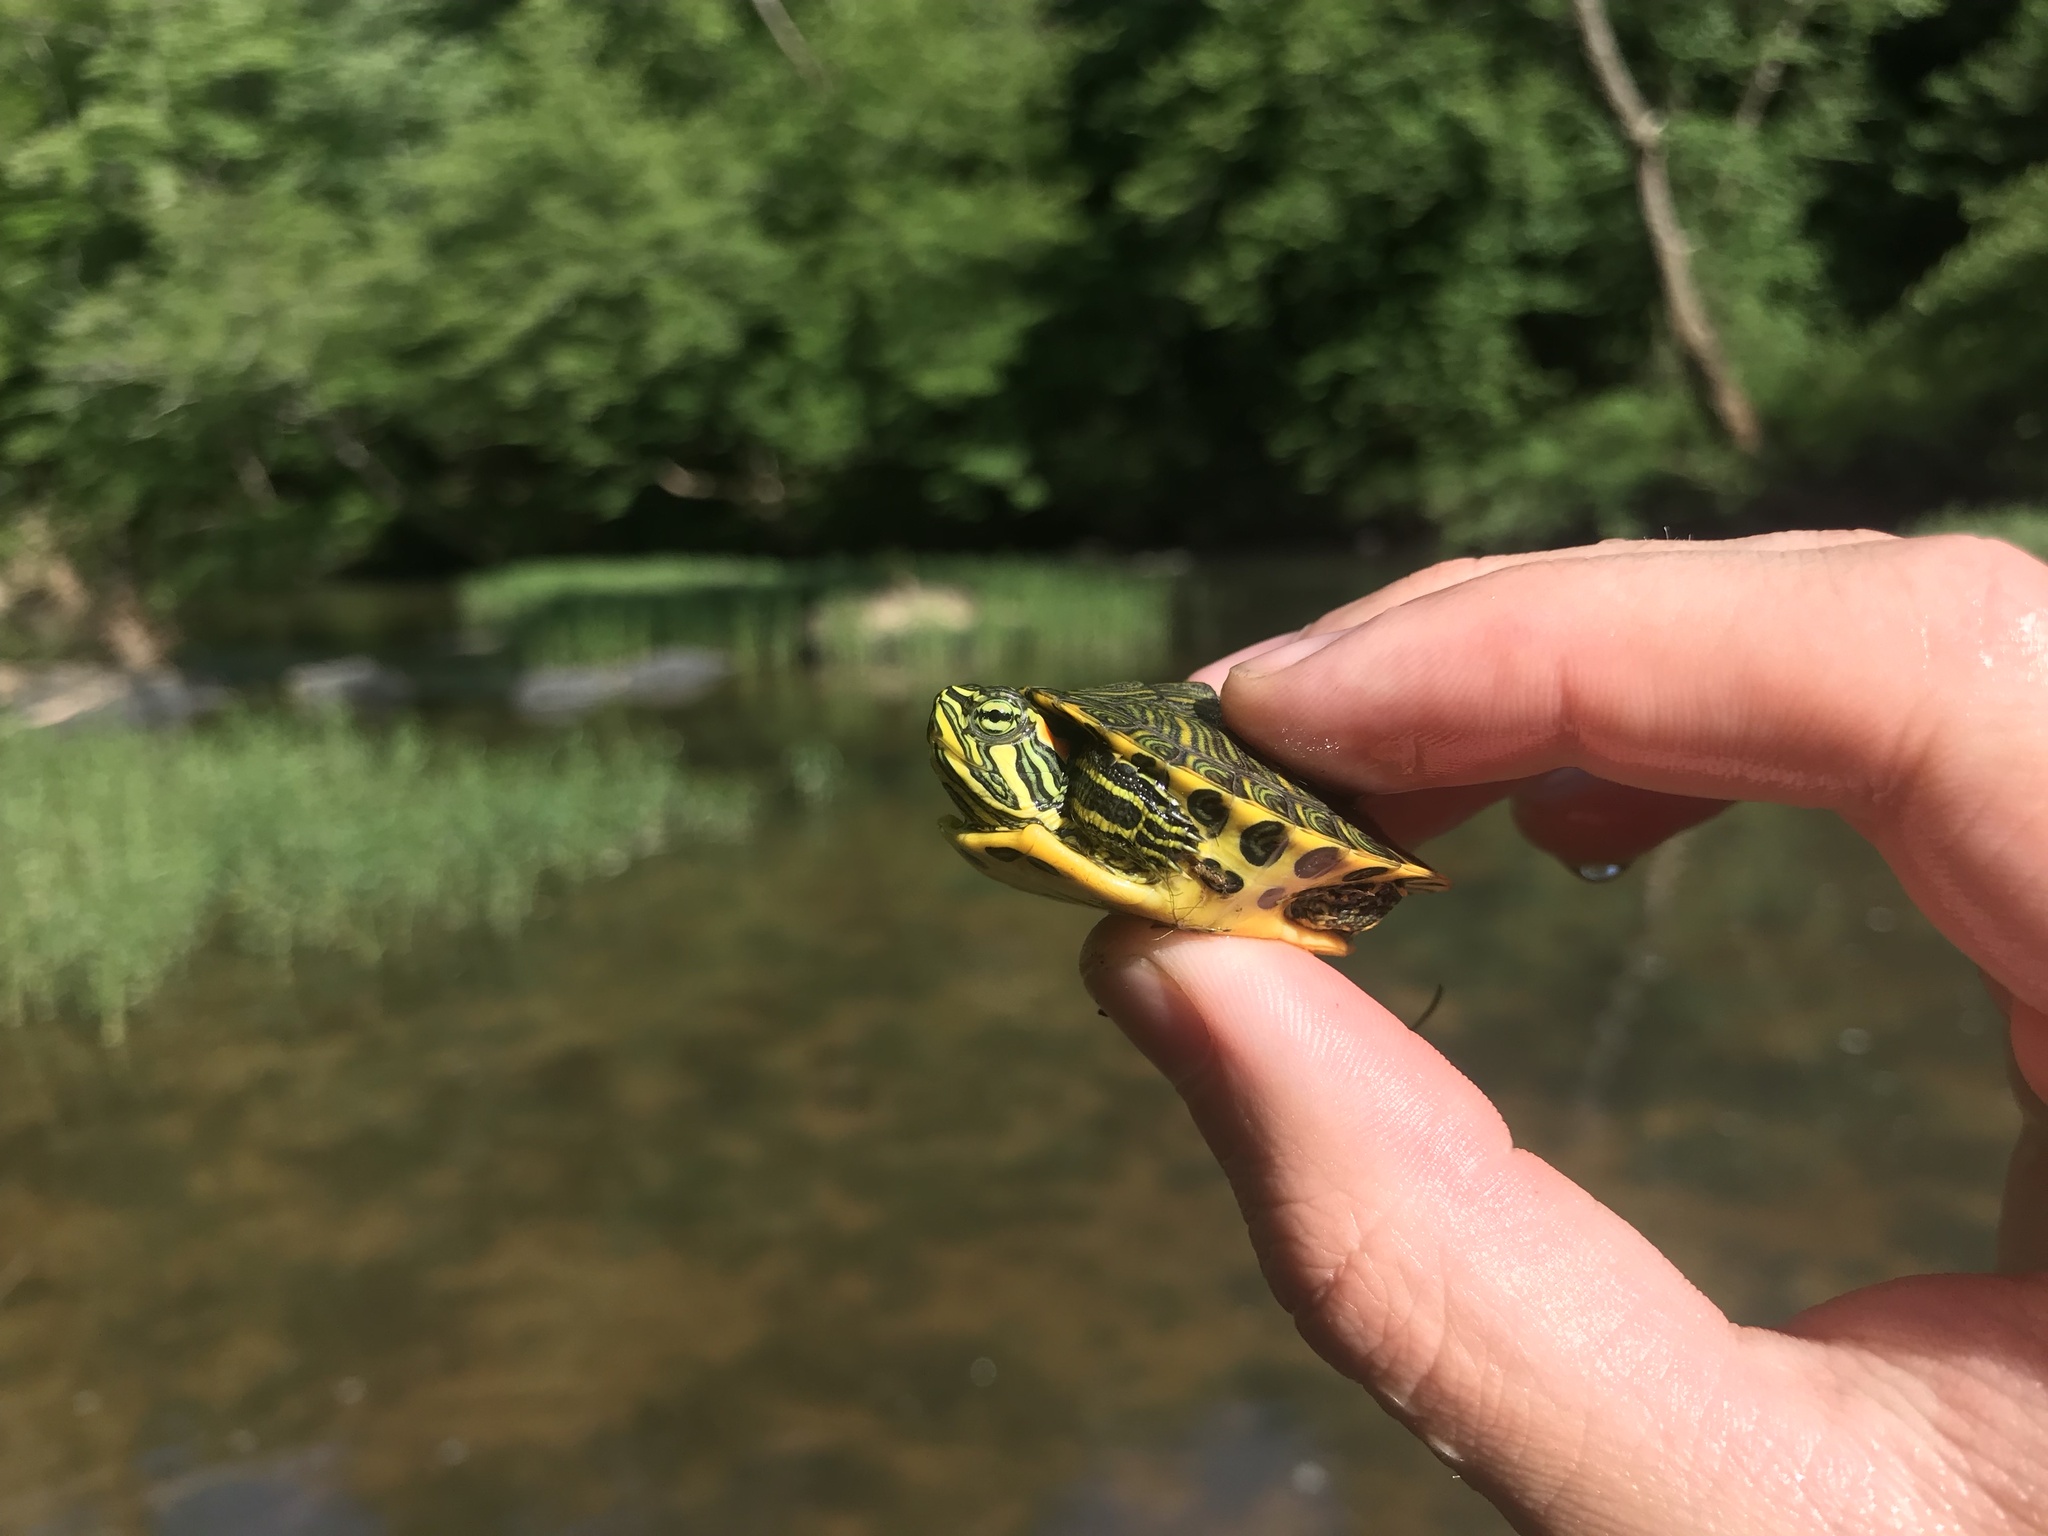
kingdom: Animalia
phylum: Chordata
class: Testudines
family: Emydidae
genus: Trachemys
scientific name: Trachemys scripta
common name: Slider
